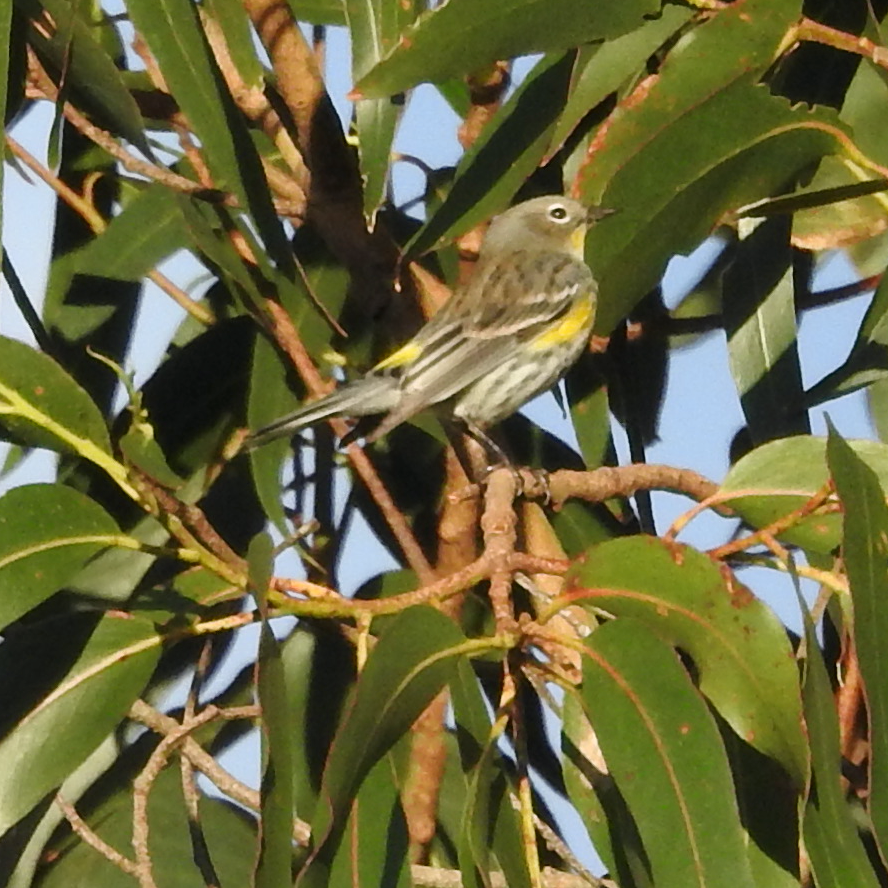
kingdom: Animalia
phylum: Chordata
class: Aves
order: Passeriformes
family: Parulidae
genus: Setophaga
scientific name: Setophaga auduboni
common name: Audubon's warbler
